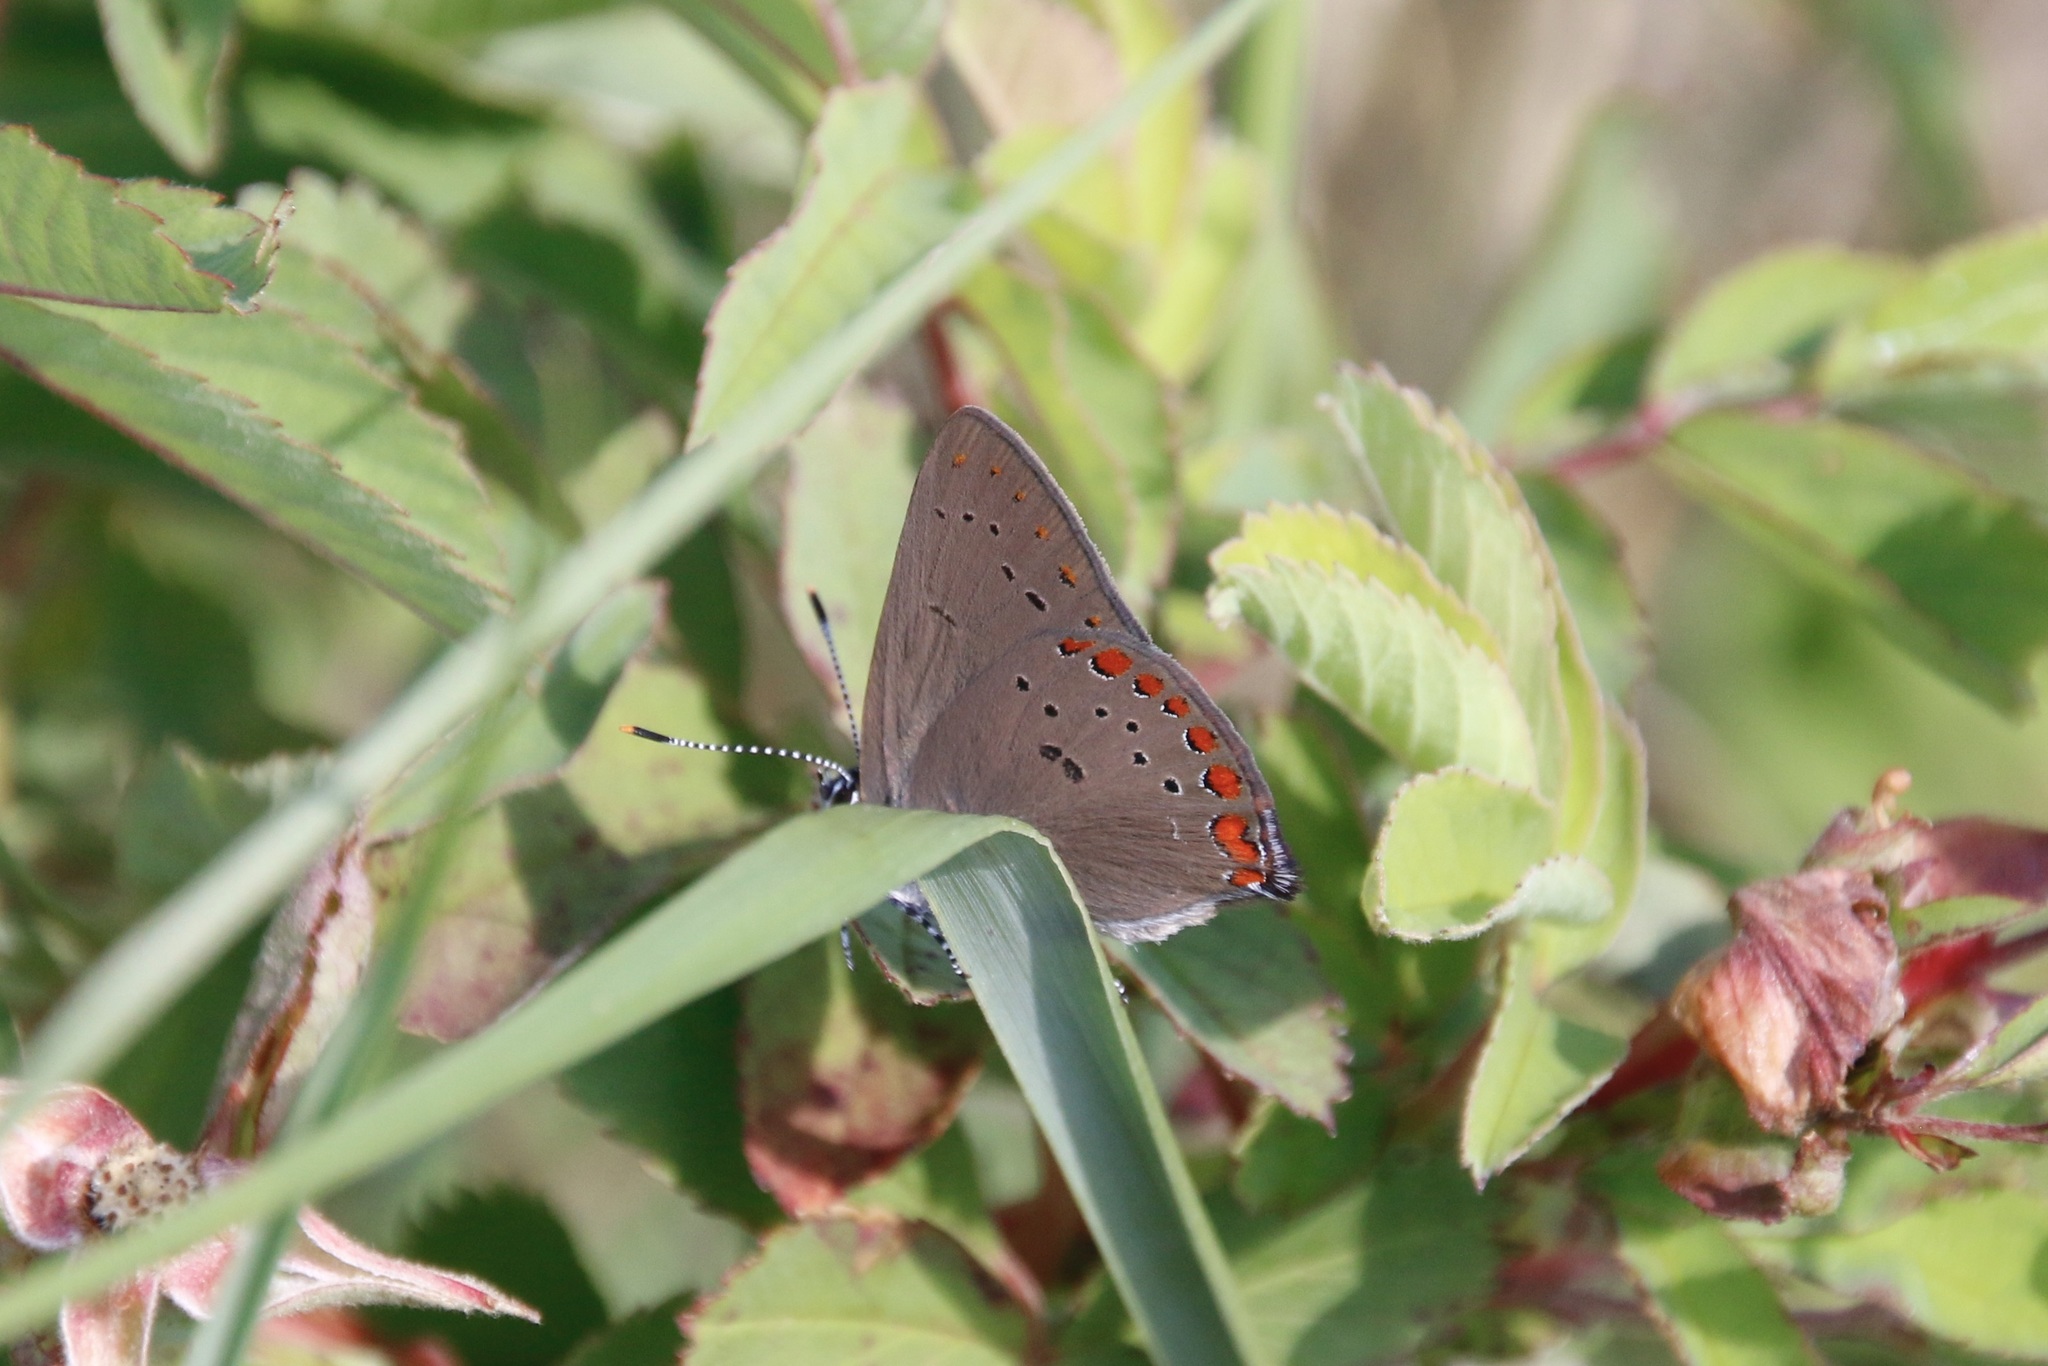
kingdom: Animalia
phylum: Arthropoda
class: Insecta
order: Lepidoptera
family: Lycaenidae
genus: Harkenclenus
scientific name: Harkenclenus titus
